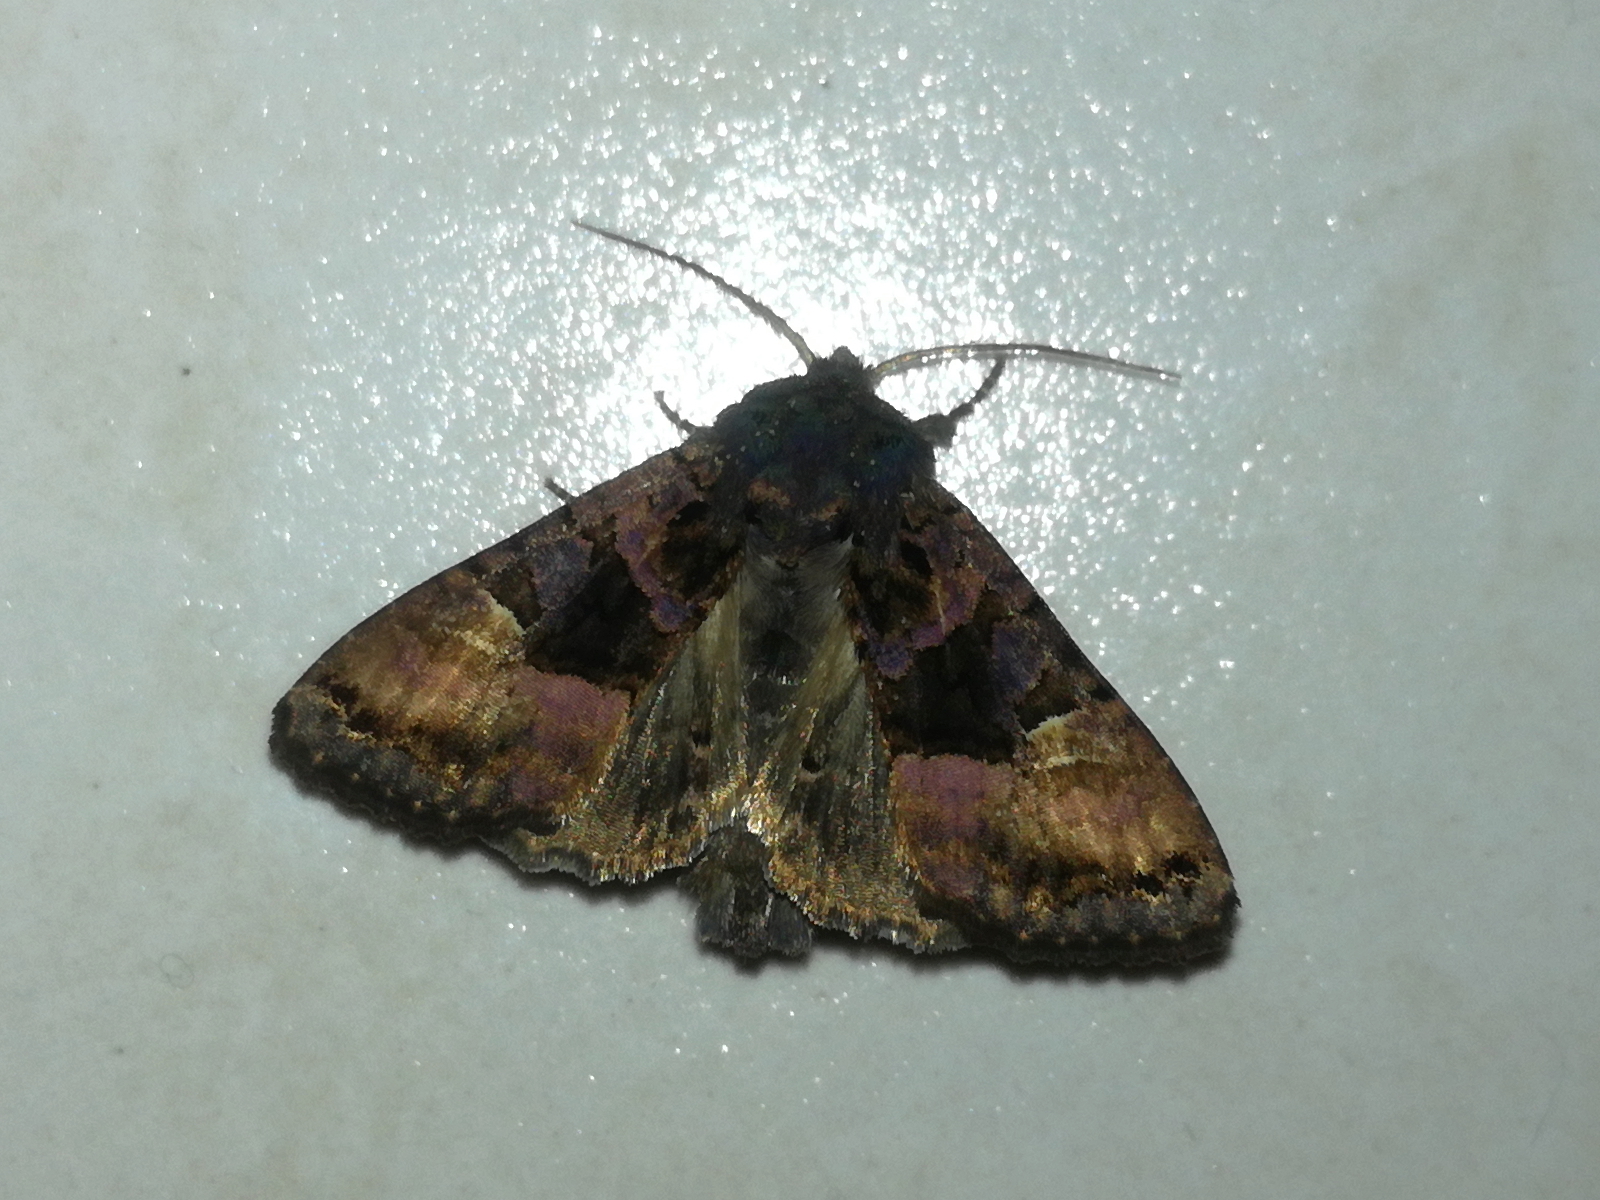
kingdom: Animalia
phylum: Arthropoda
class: Insecta
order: Lepidoptera
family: Noctuidae
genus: Euplexia
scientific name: Euplexia lucipara
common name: Small angle shades
